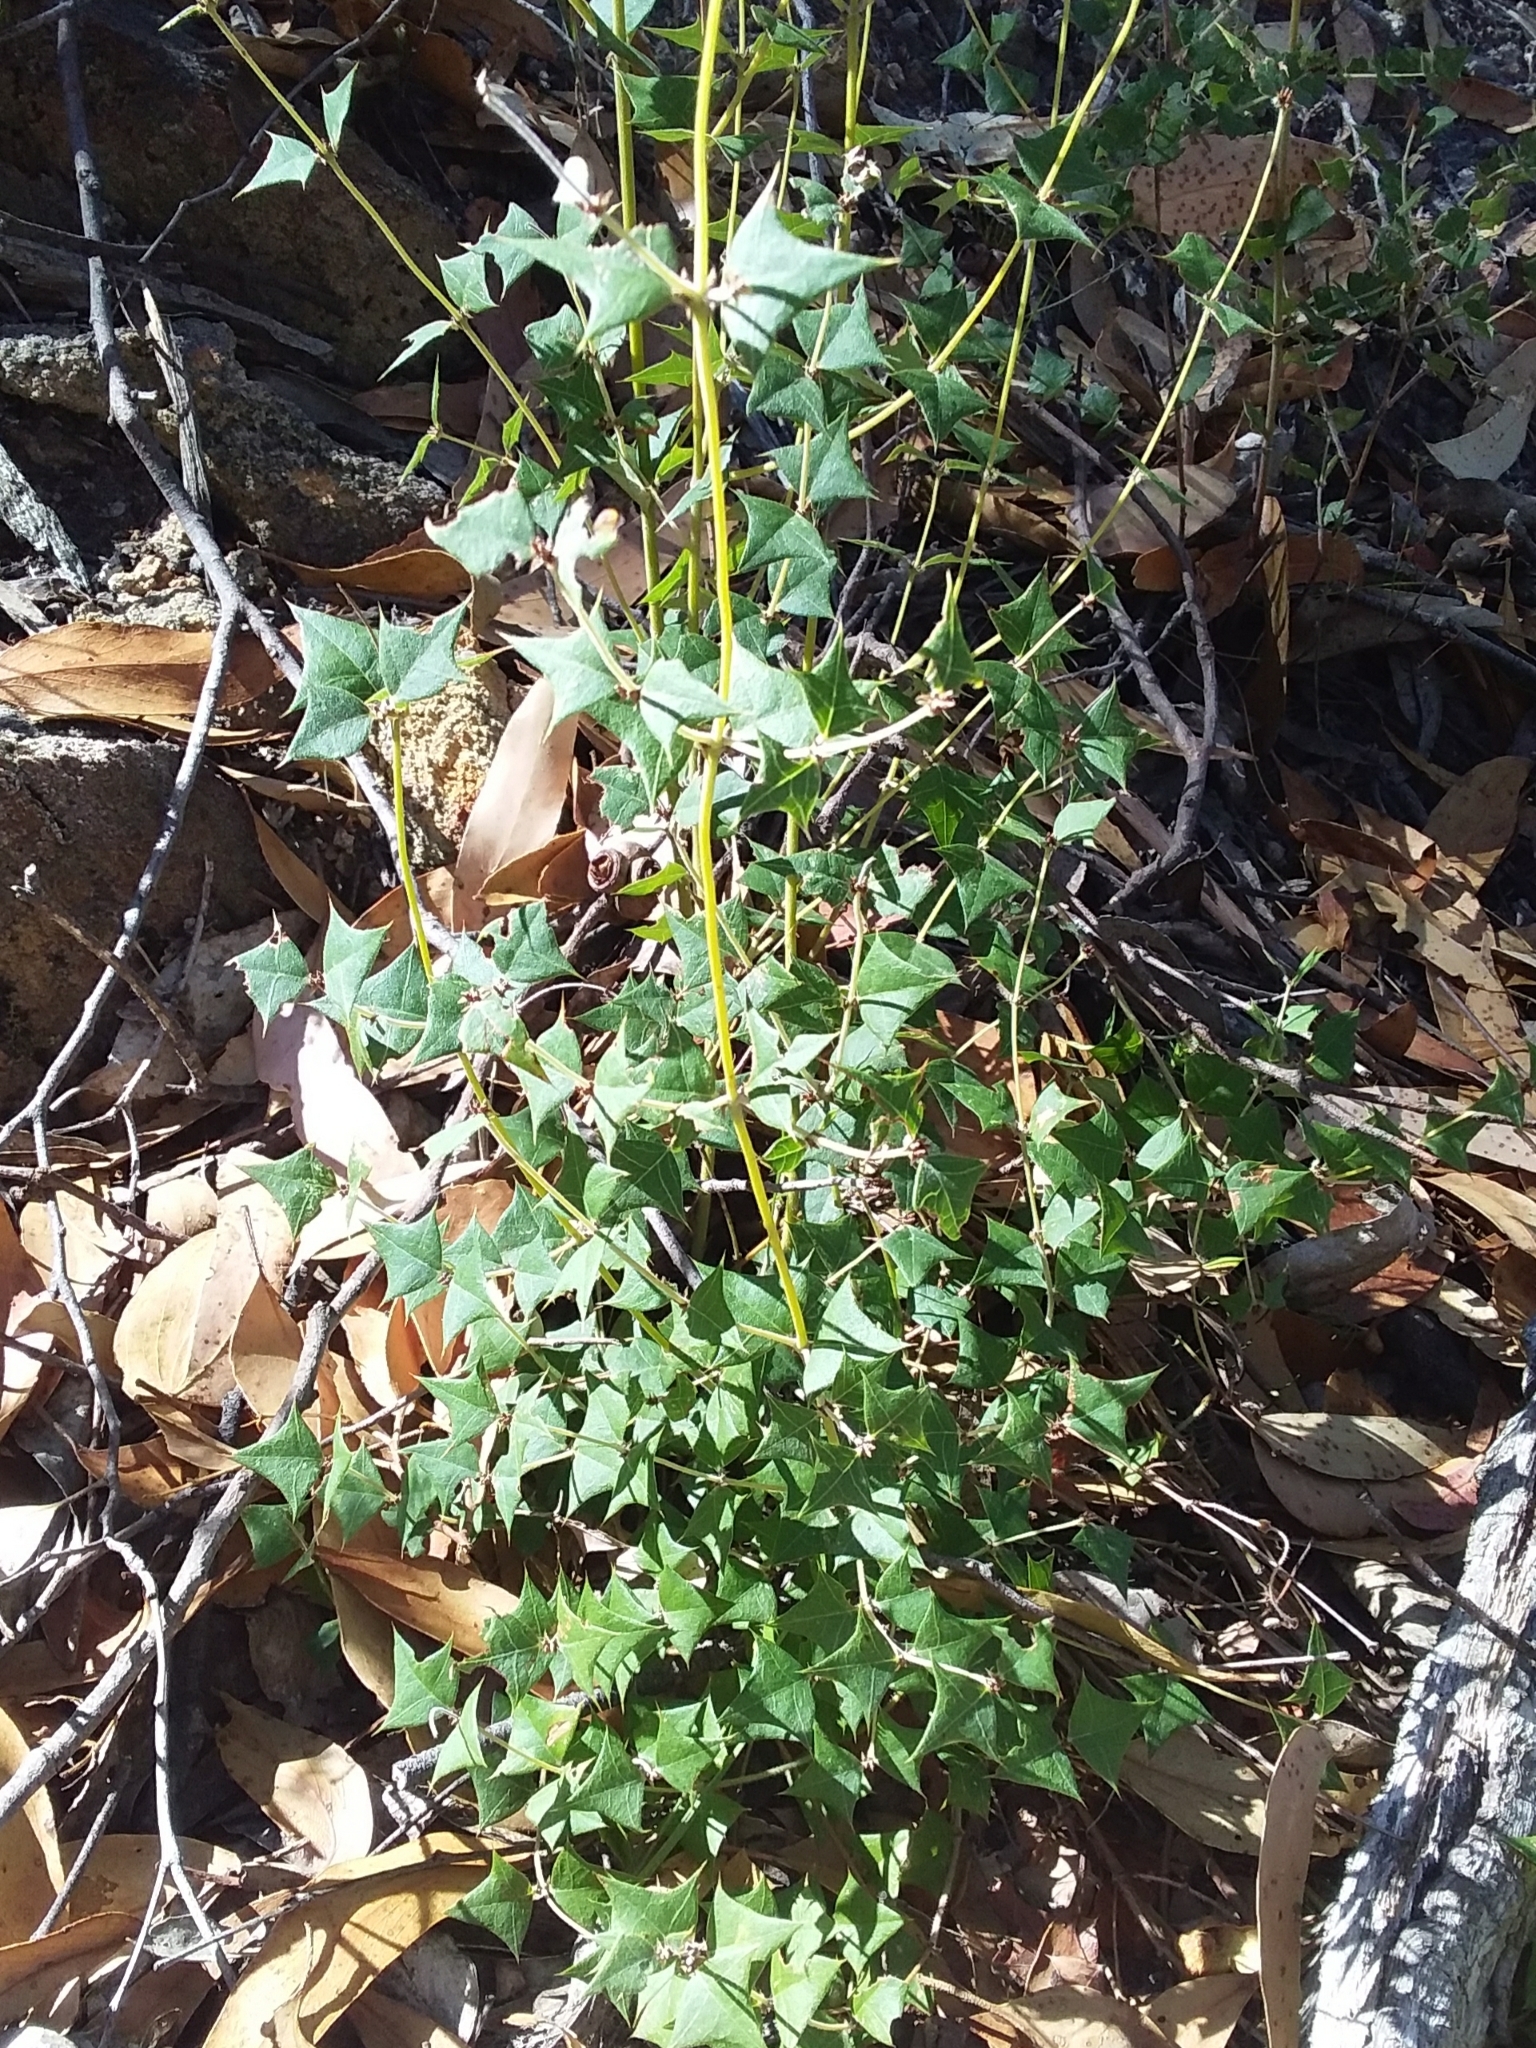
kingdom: Plantae
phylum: Tracheophyta
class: Magnoliopsida
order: Fabales
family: Fabaceae
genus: Platylobium
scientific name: Platylobium obtusangulum
